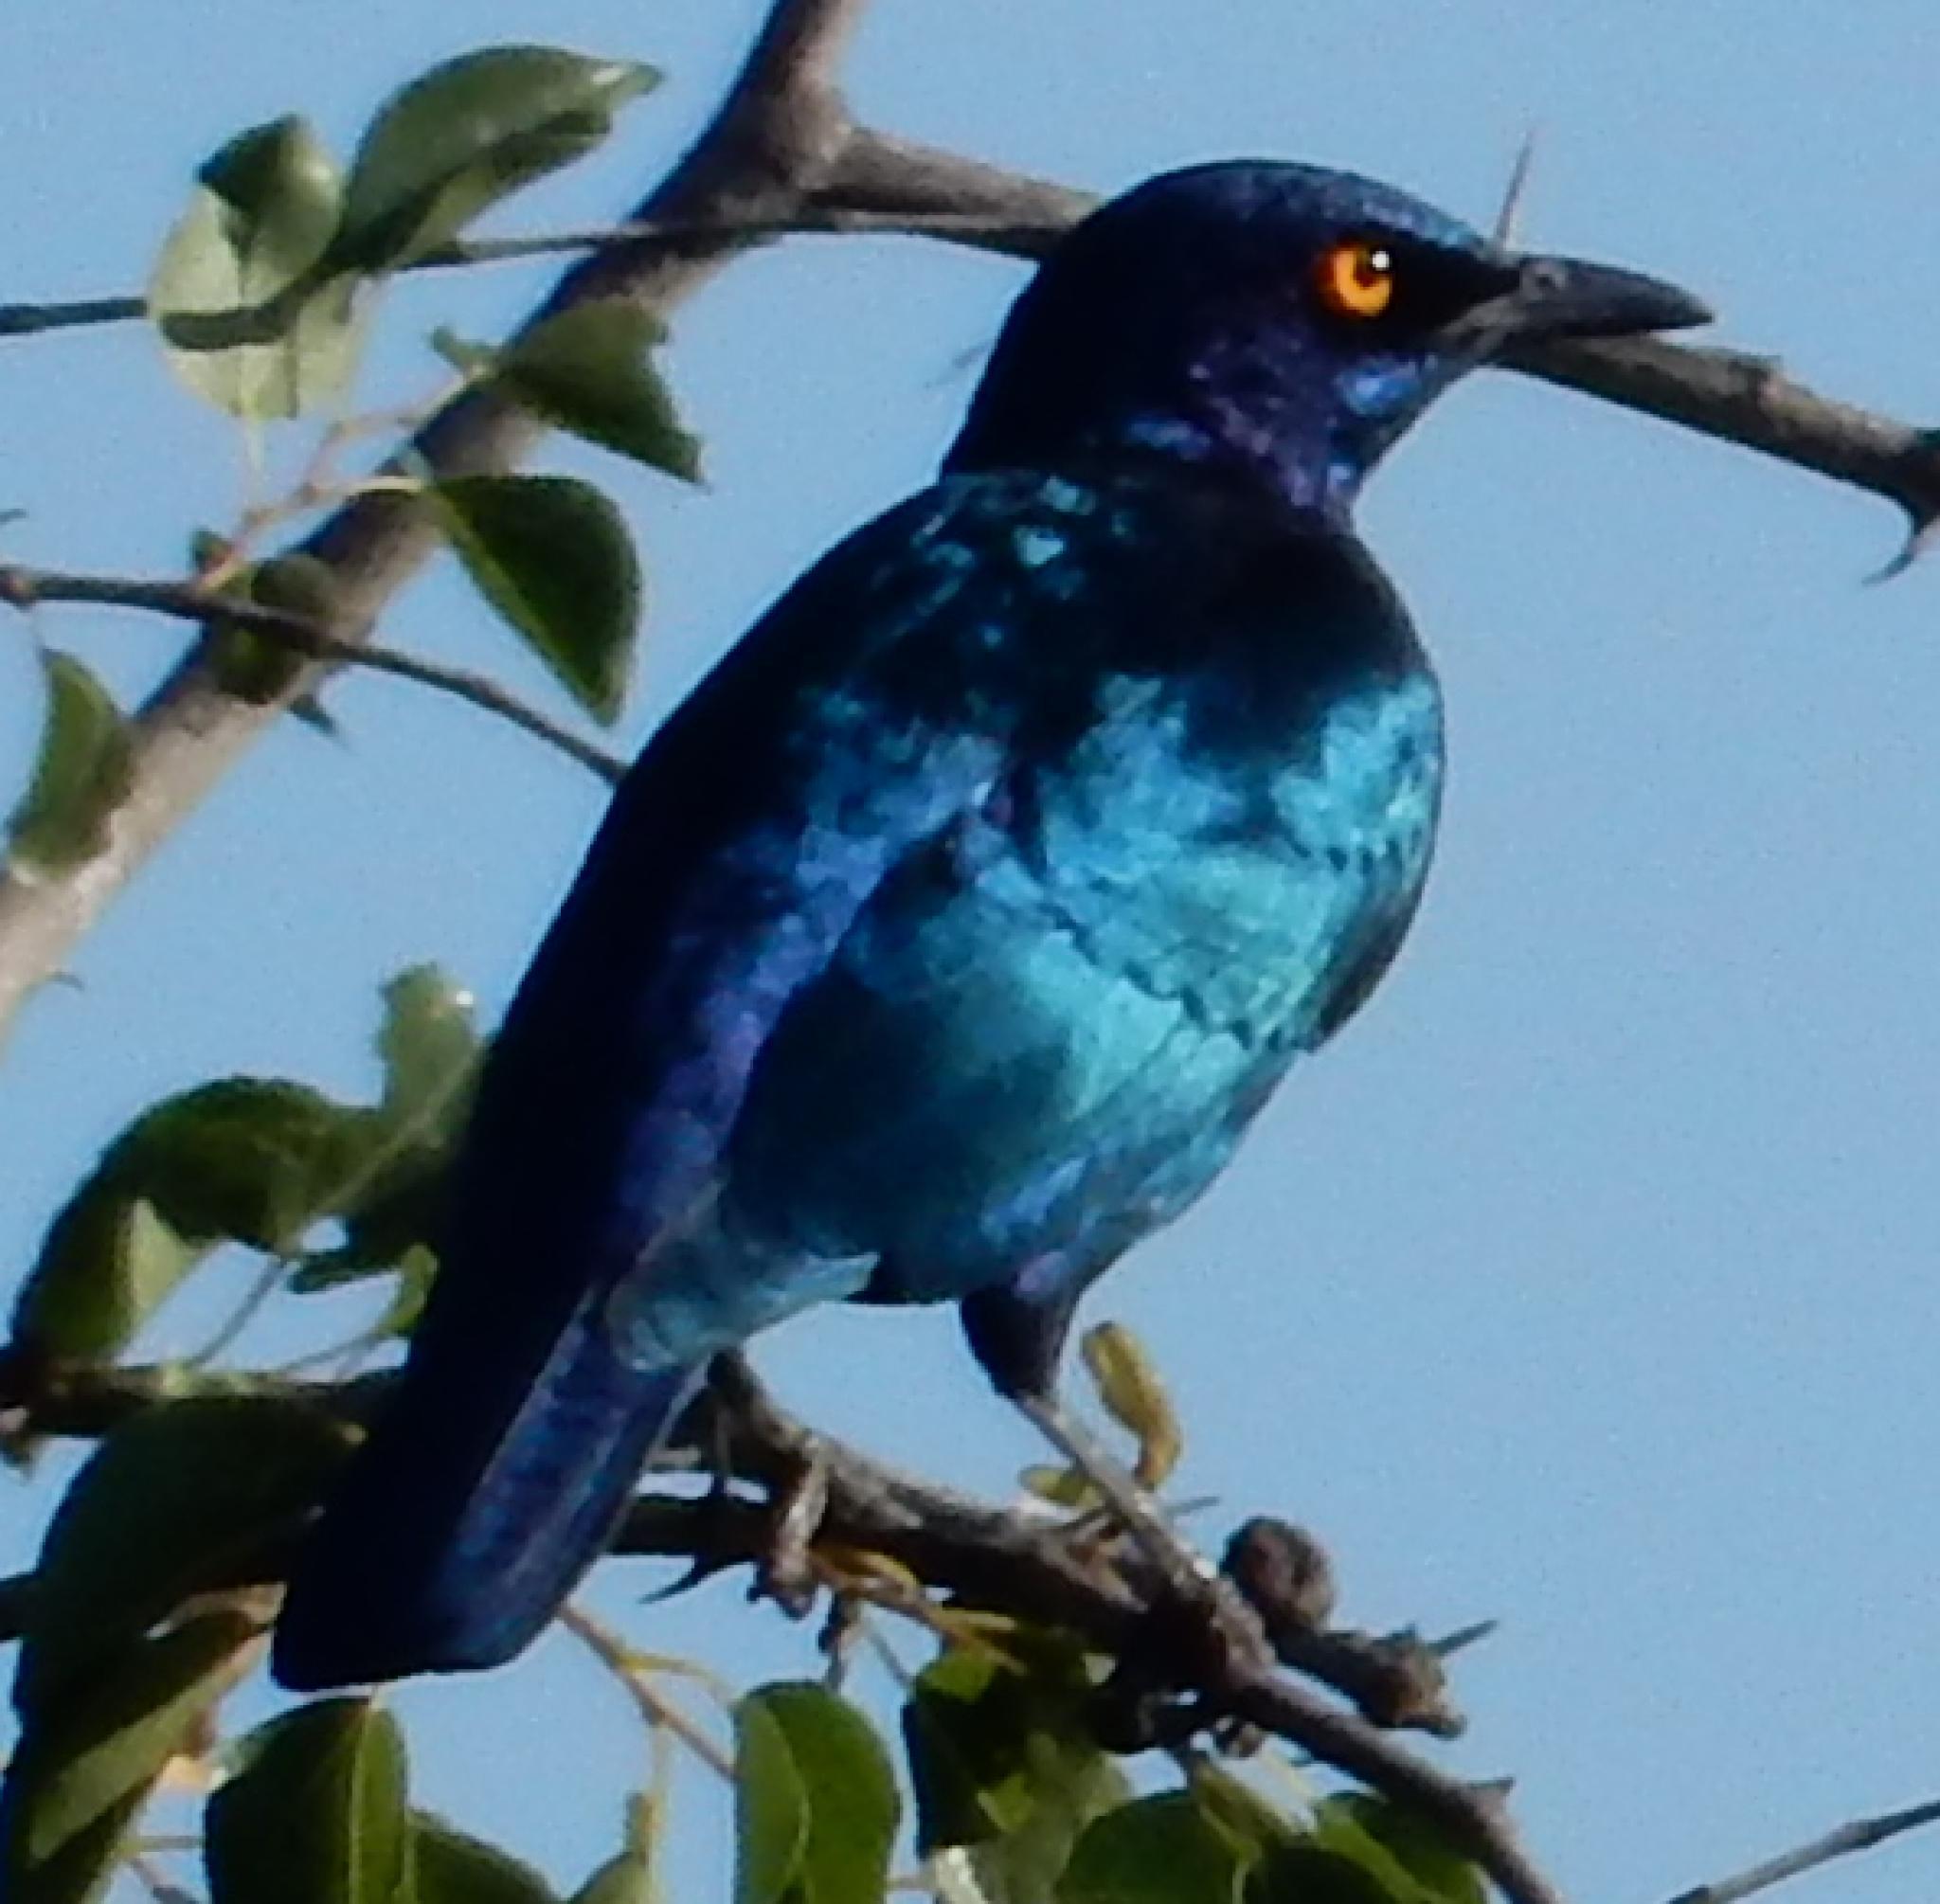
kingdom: Animalia
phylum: Chordata
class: Aves
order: Passeriformes
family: Sturnidae
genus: Lamprotornis
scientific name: Lamprotornis nitens
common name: Cape starling
